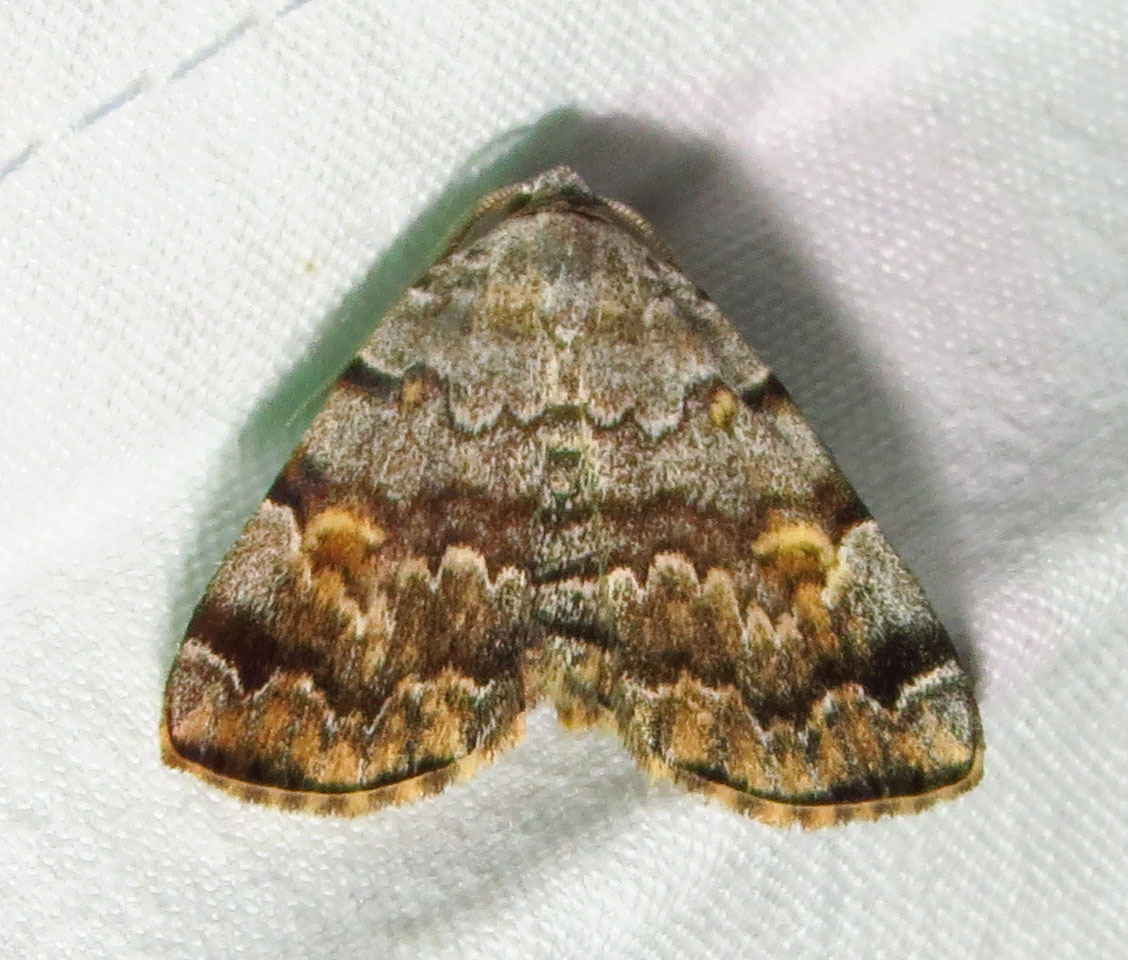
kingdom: Animalia
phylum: Arthropoda
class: Insecta
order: Lepidoptera
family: Erebidae
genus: Idia
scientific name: Idia americalis
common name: American idia moth
